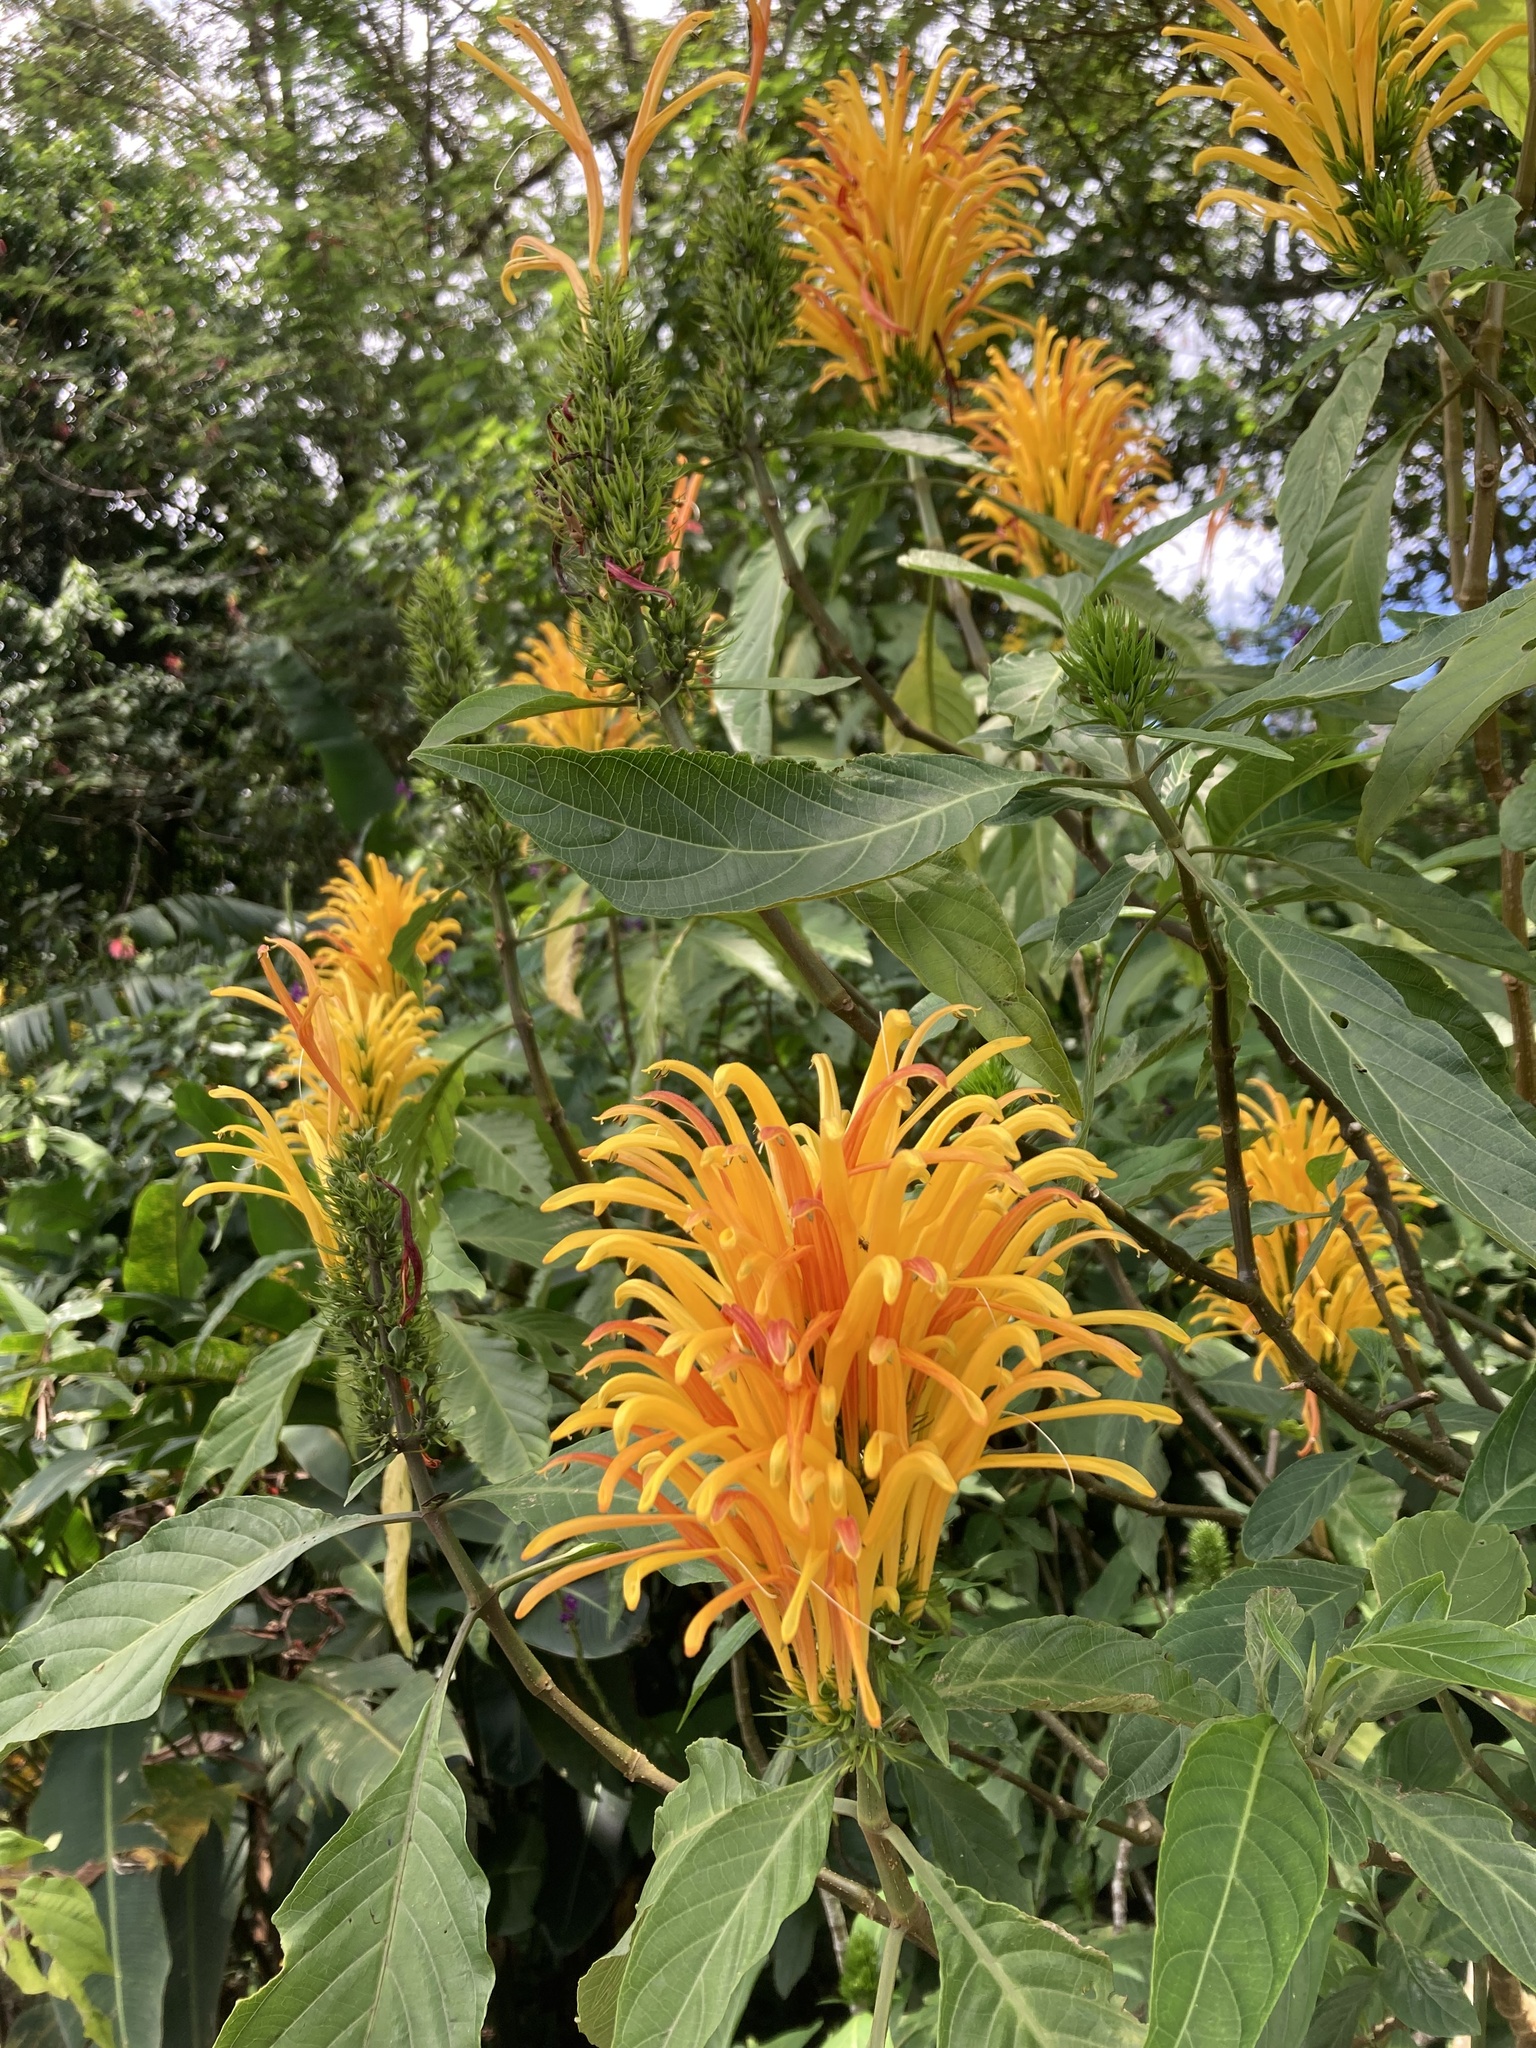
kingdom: Plantae
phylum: Tracheophyta
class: Magnoliopsida
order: Lamiales
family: Acanthaceae
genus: Justicia
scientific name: Justicia aurea
